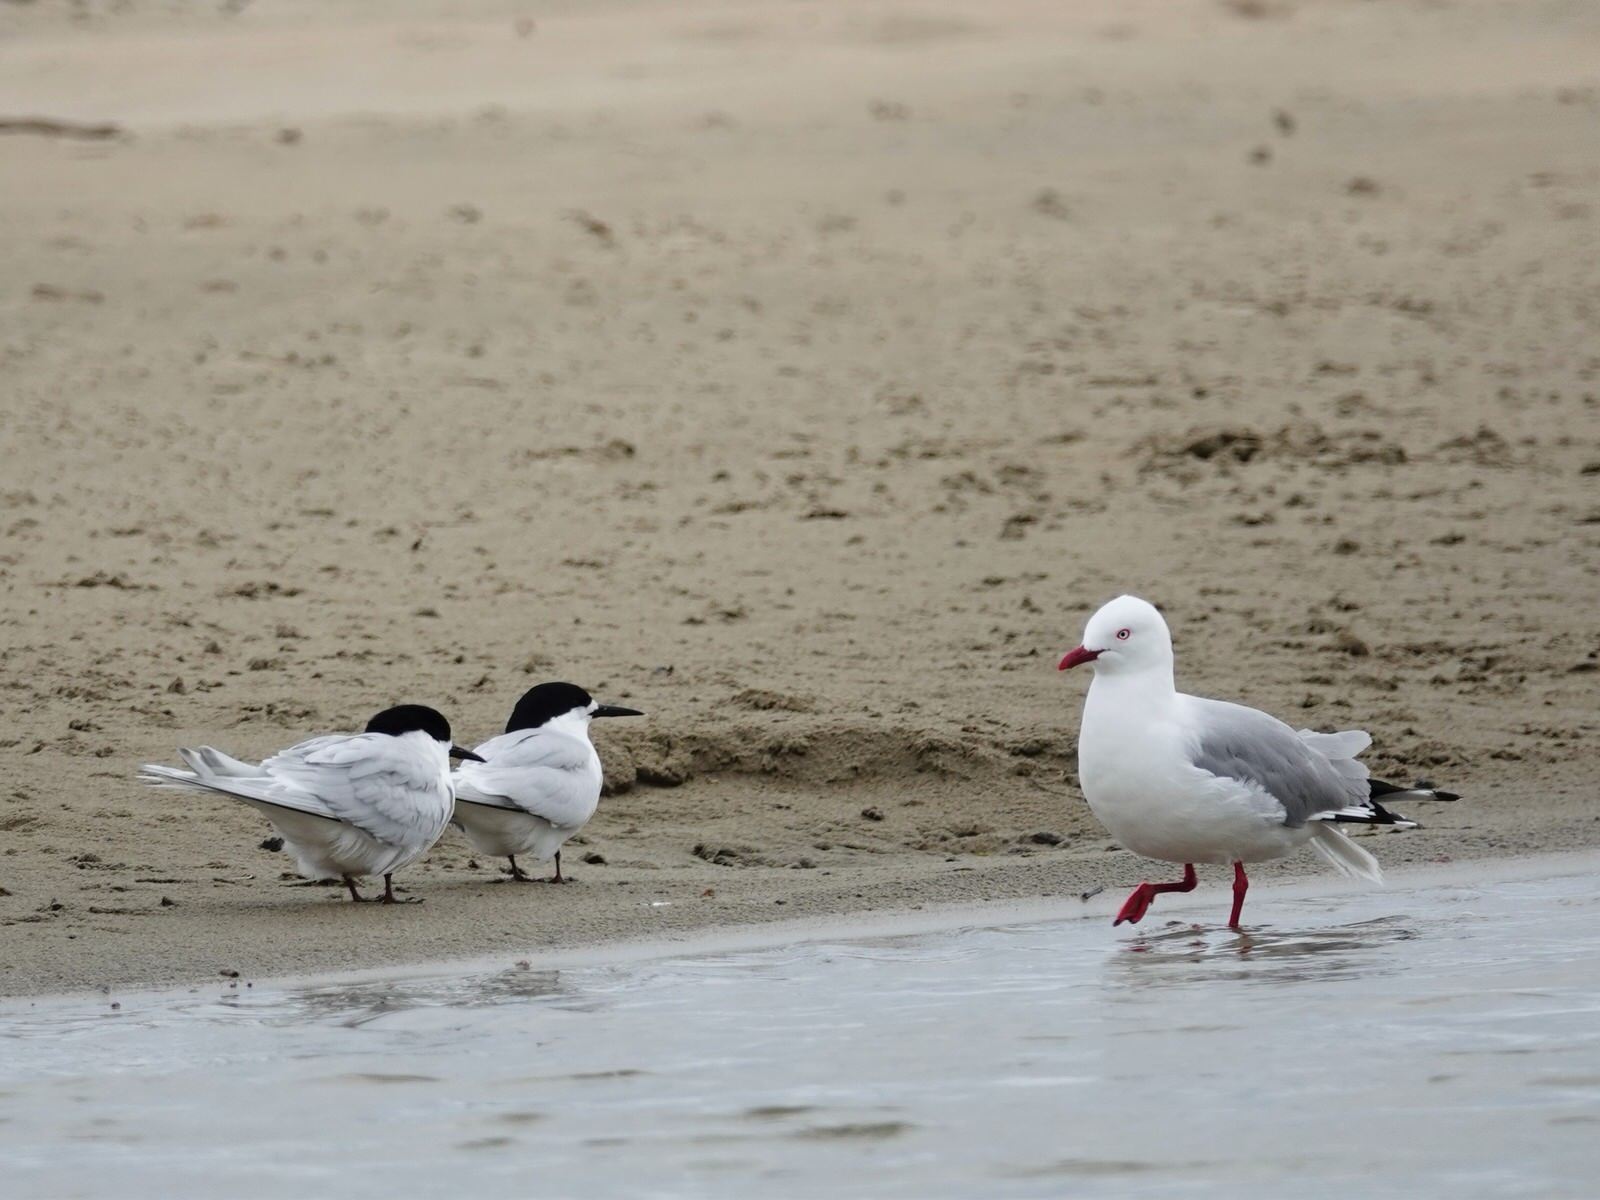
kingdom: Animalia
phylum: Chordata
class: Aves
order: Charadriiformes
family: Laridae
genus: Sterna
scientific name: Sterna striata
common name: White-fronted tern
